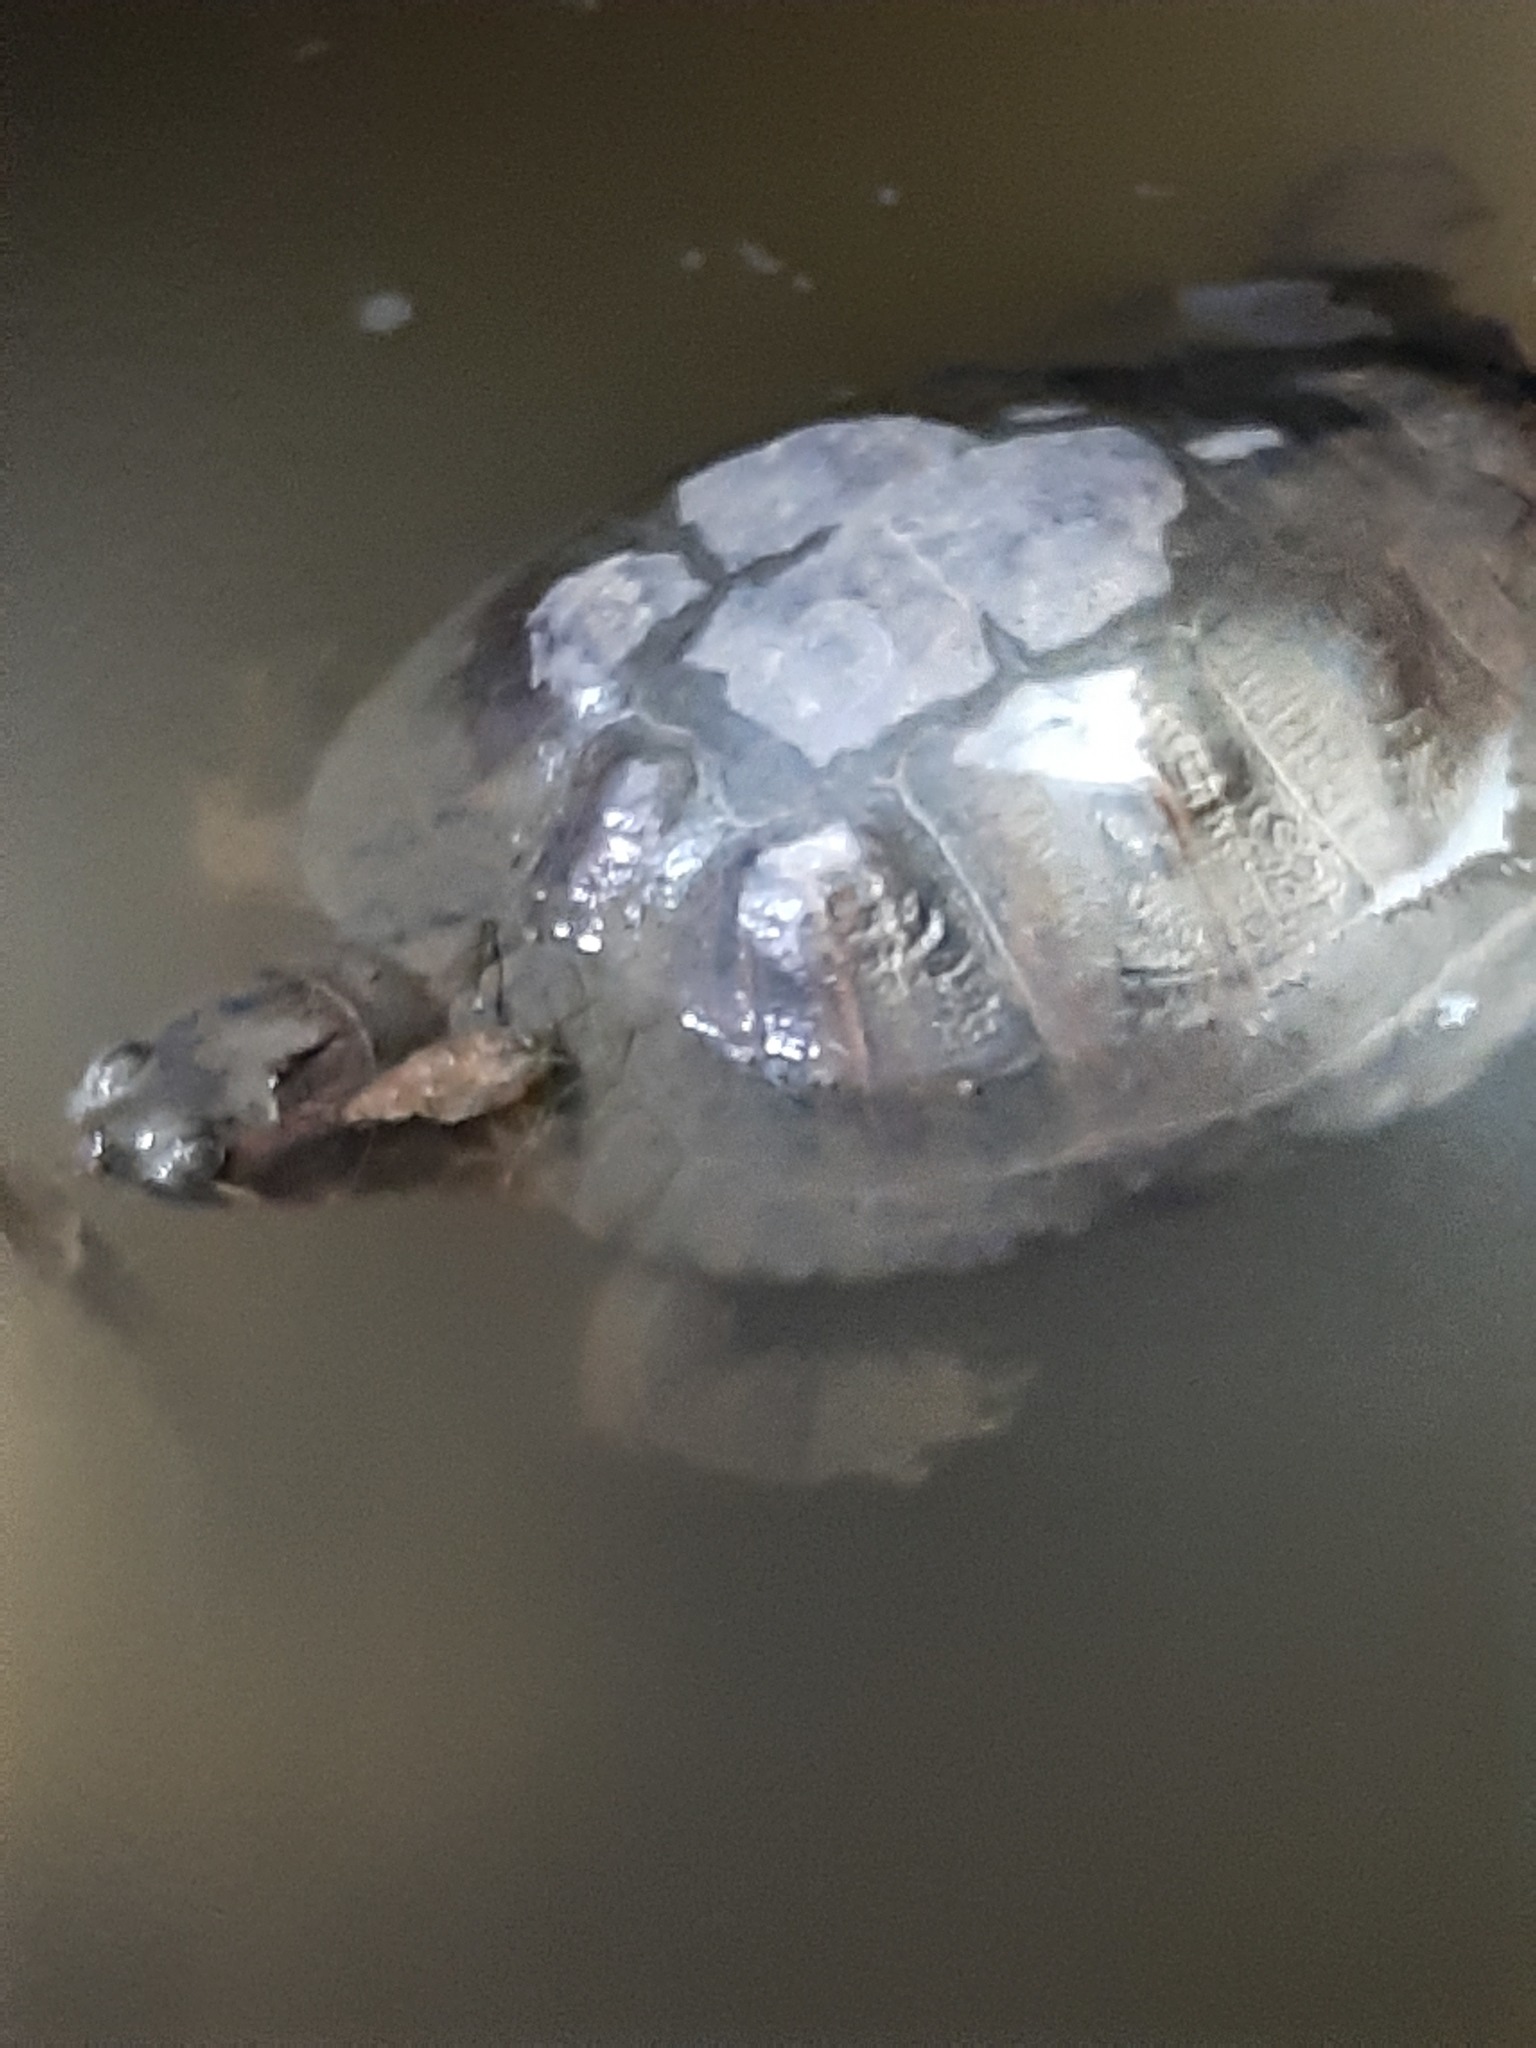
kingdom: Animalia
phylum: Chordata
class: Testudines
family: Emydidae
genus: Trachemys
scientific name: Trachemys scripta
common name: Slider
